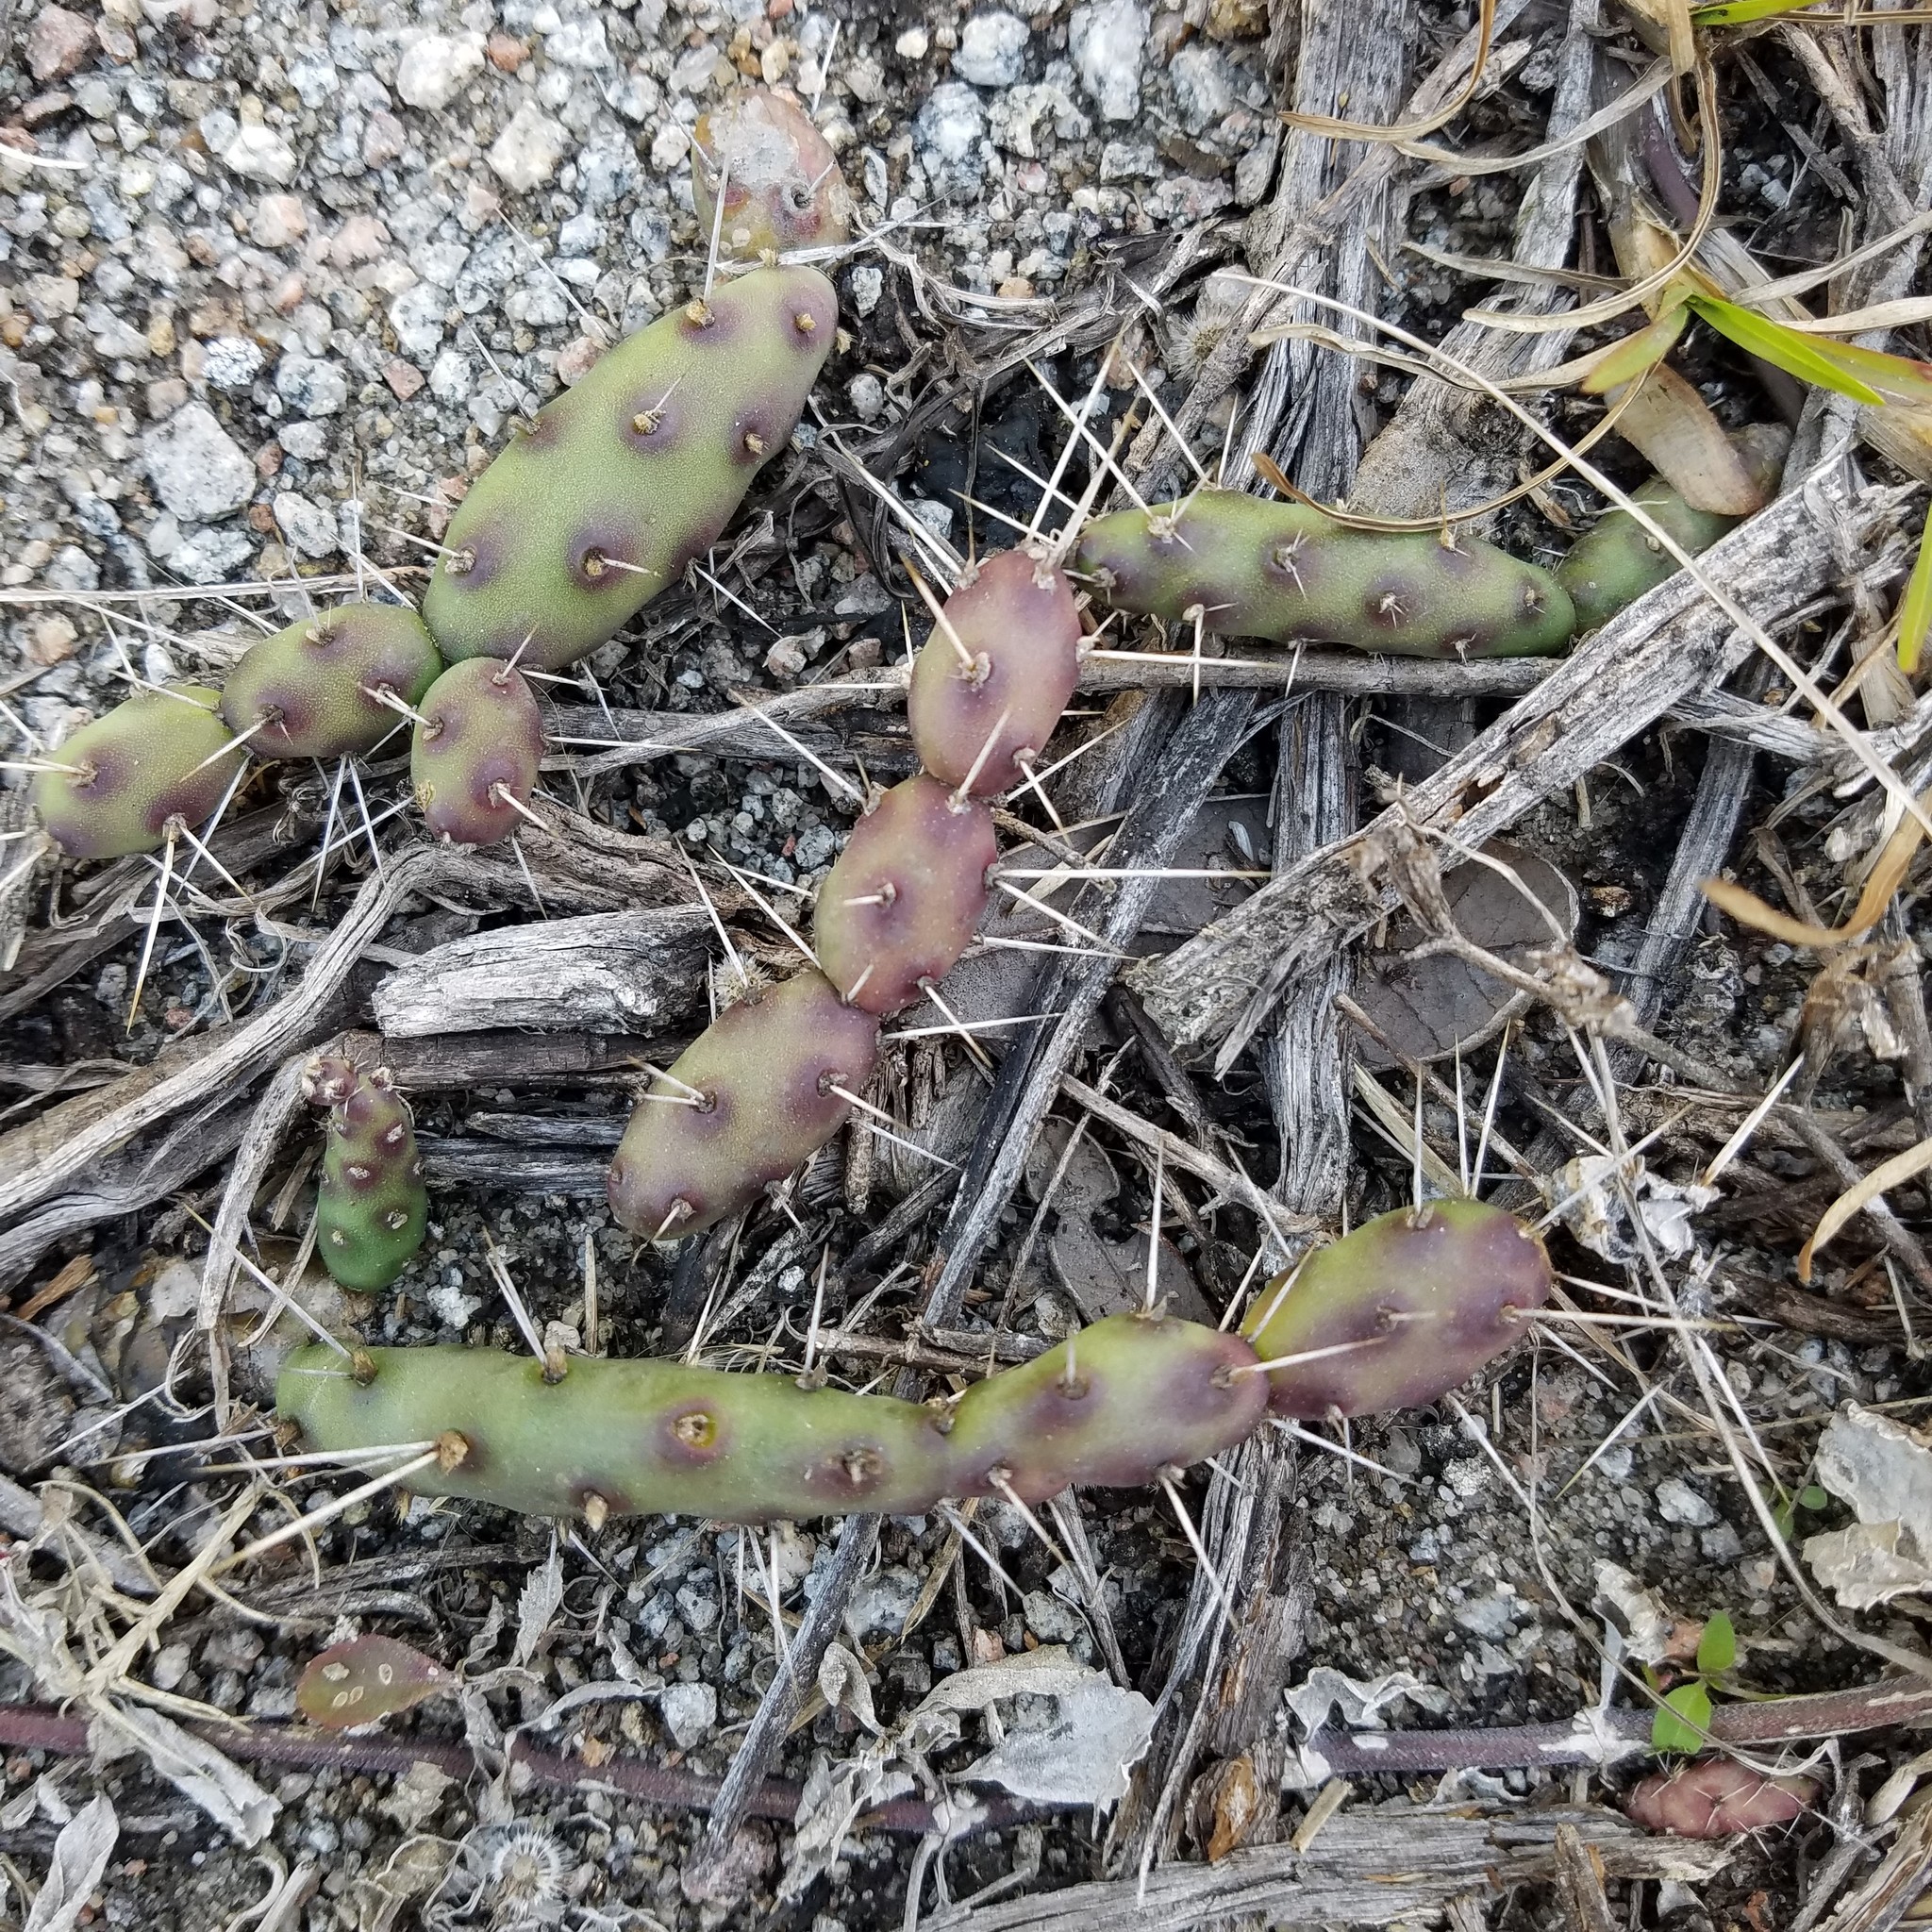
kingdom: Plantae
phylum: Tracheophyta
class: Magnoliopsida
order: Caryophyllales
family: Cactaceae
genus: Opuntia
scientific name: Opuntia drummondii
